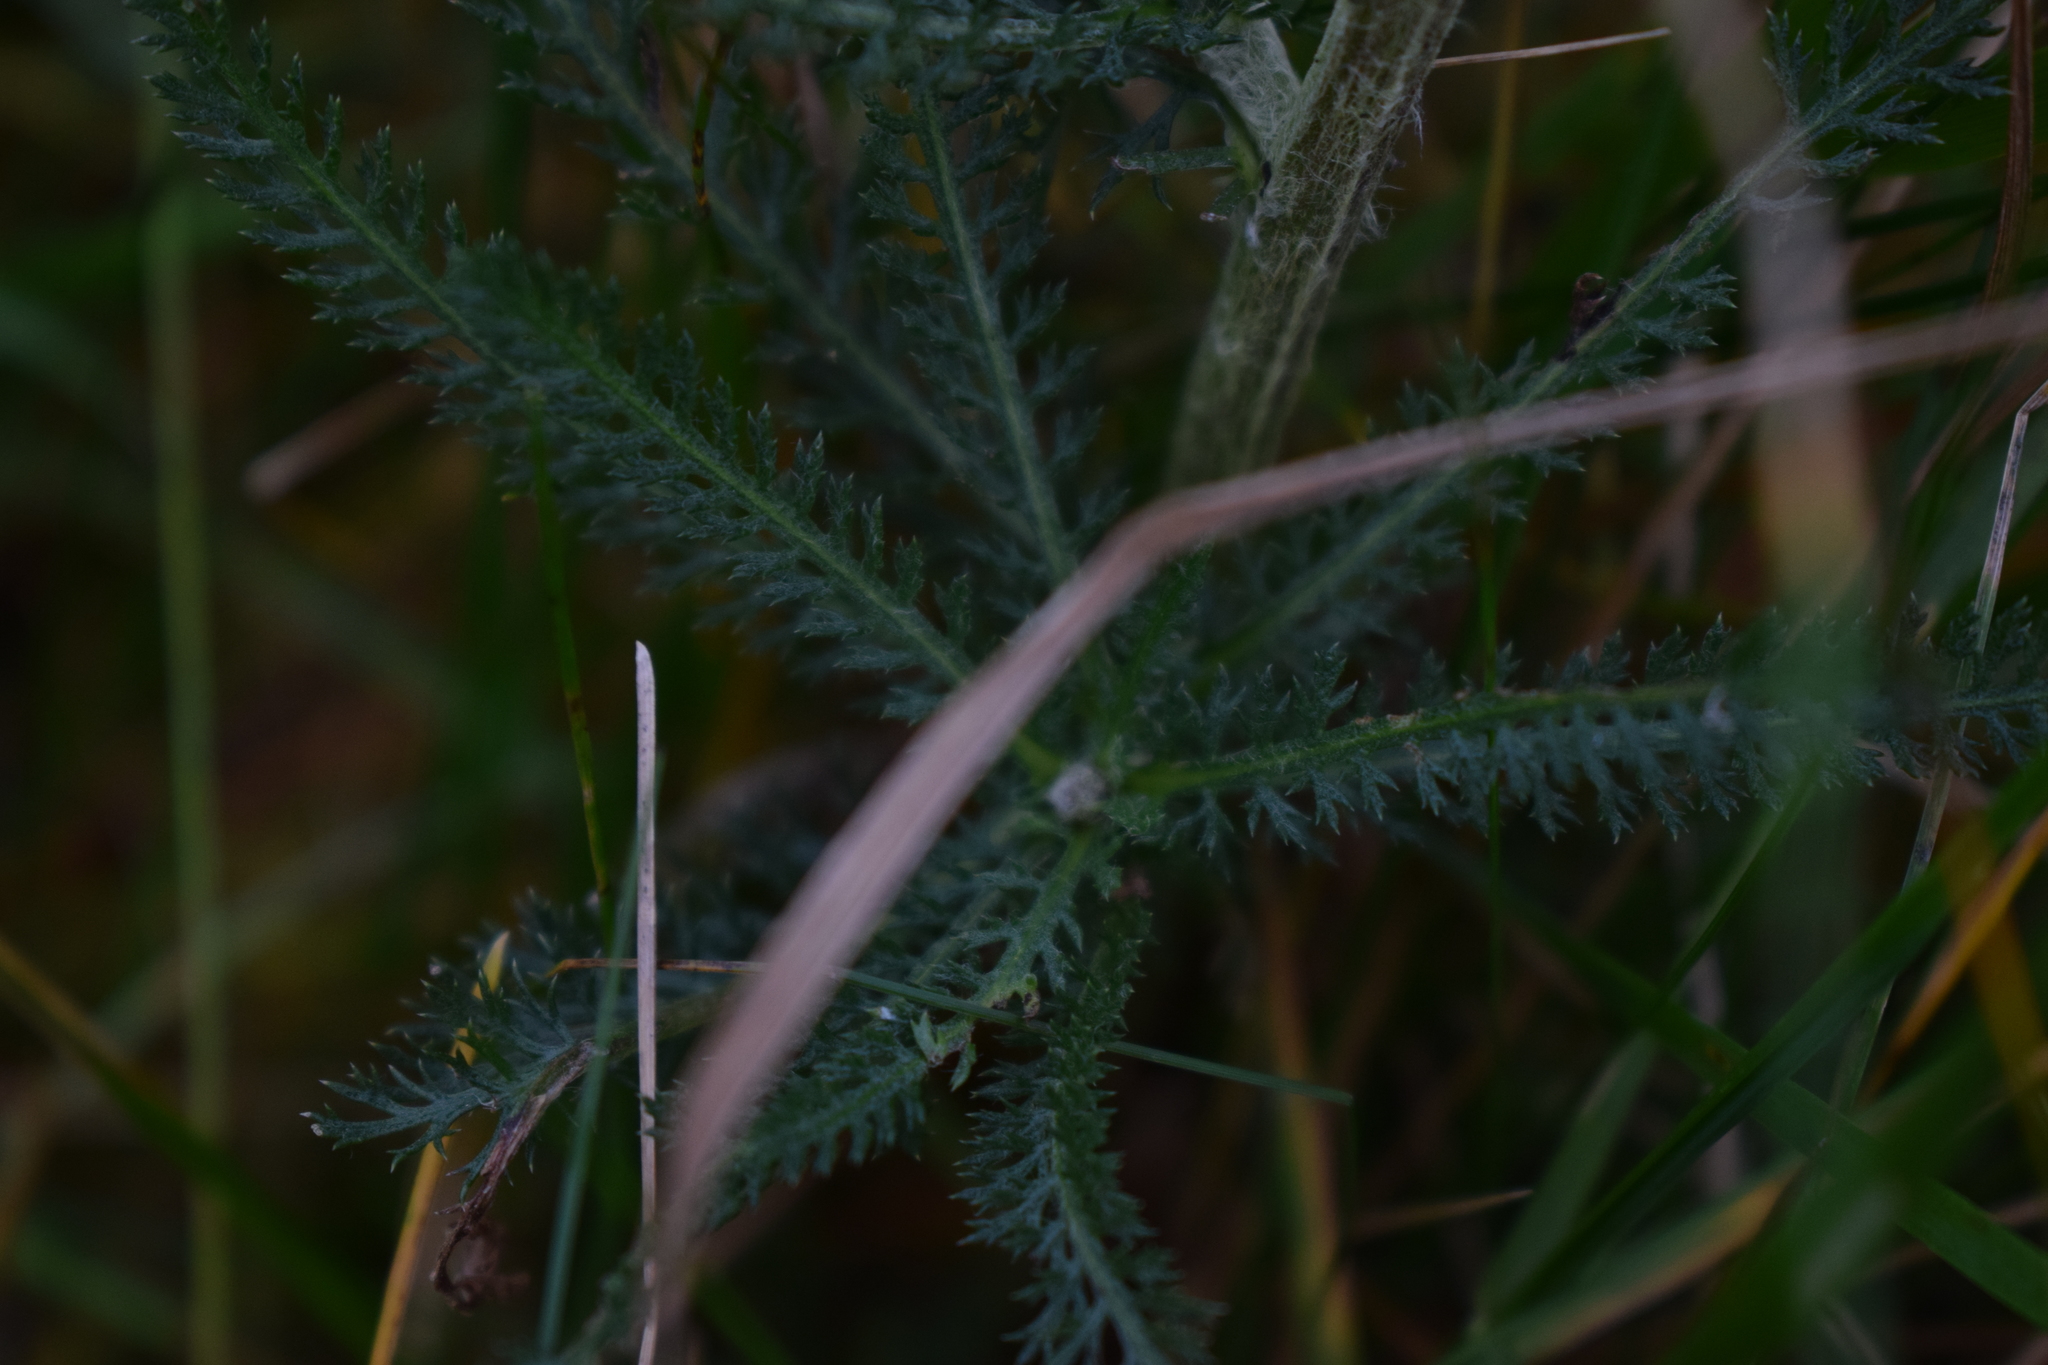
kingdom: Plantae
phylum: Tracheophyta
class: Magnoliopsida
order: Asterales
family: Asteraceae
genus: Achillea
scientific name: Achillea millefolium
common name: Yarrow
